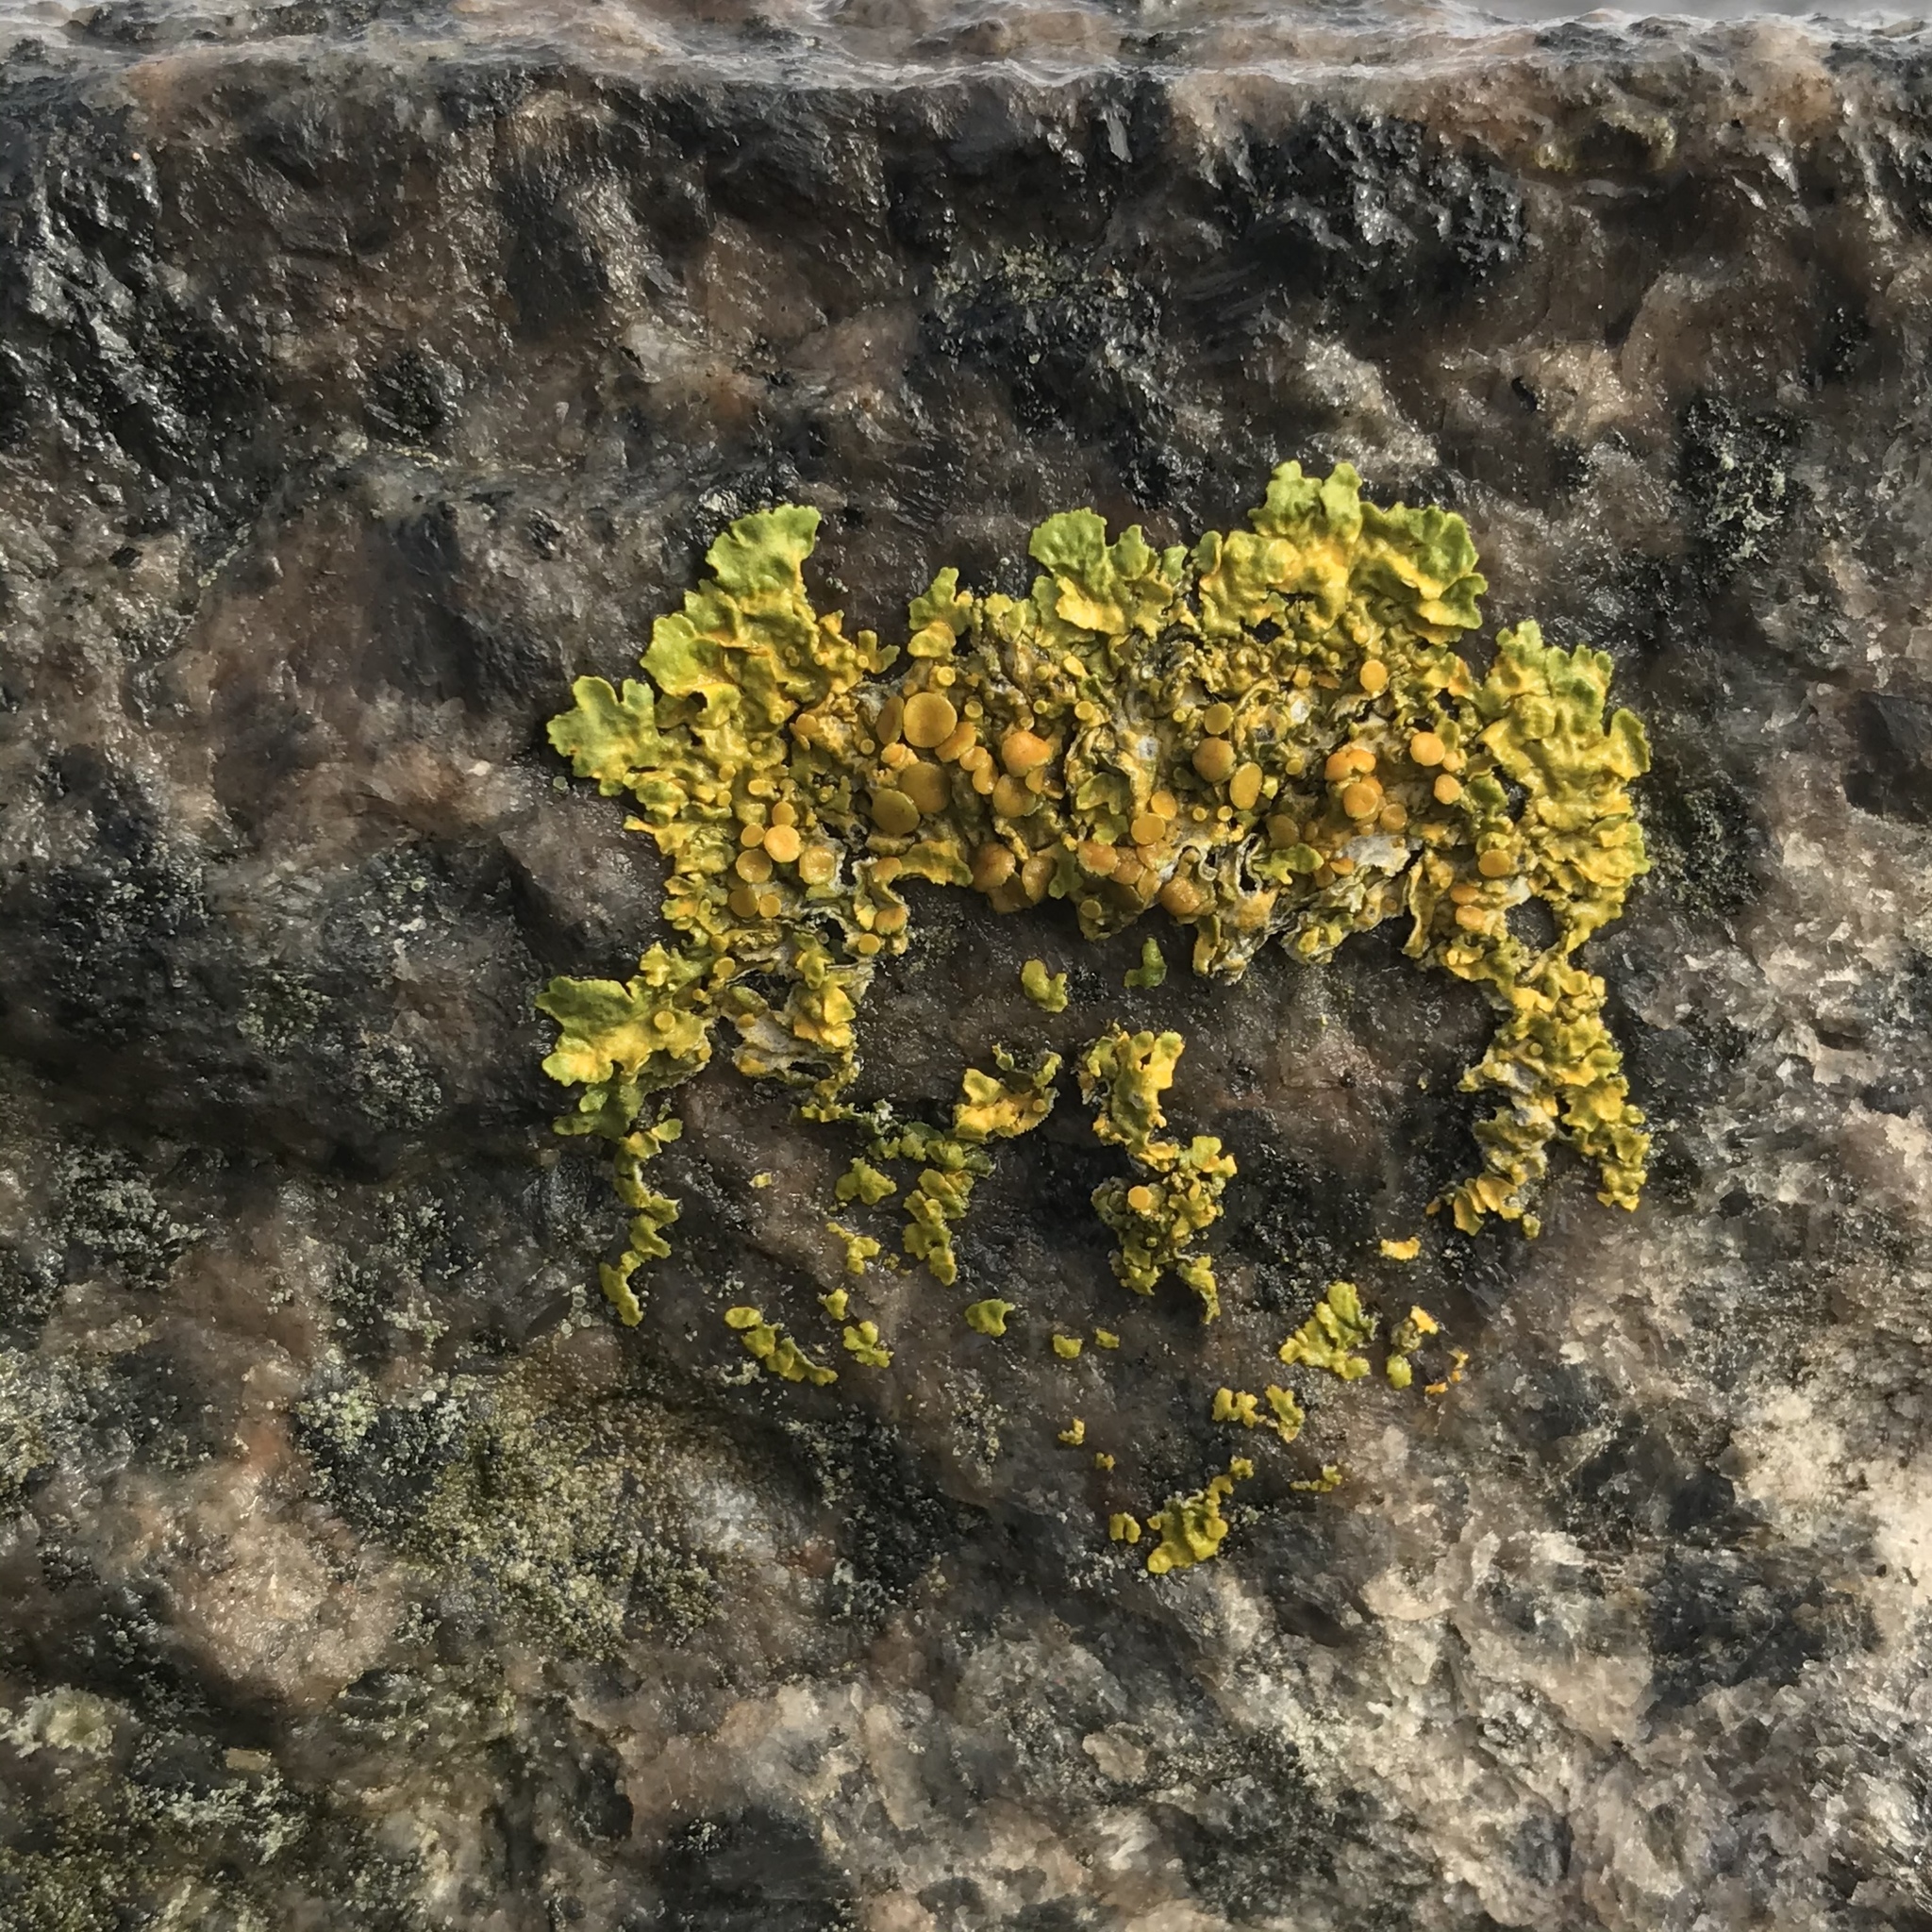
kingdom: Fungi
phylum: Ascomycota
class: Lecanoromycetes
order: Teloschistales
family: Teloschistaceae
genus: Xanthoria
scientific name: Xanthoria parietina
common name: Common orange lichen
